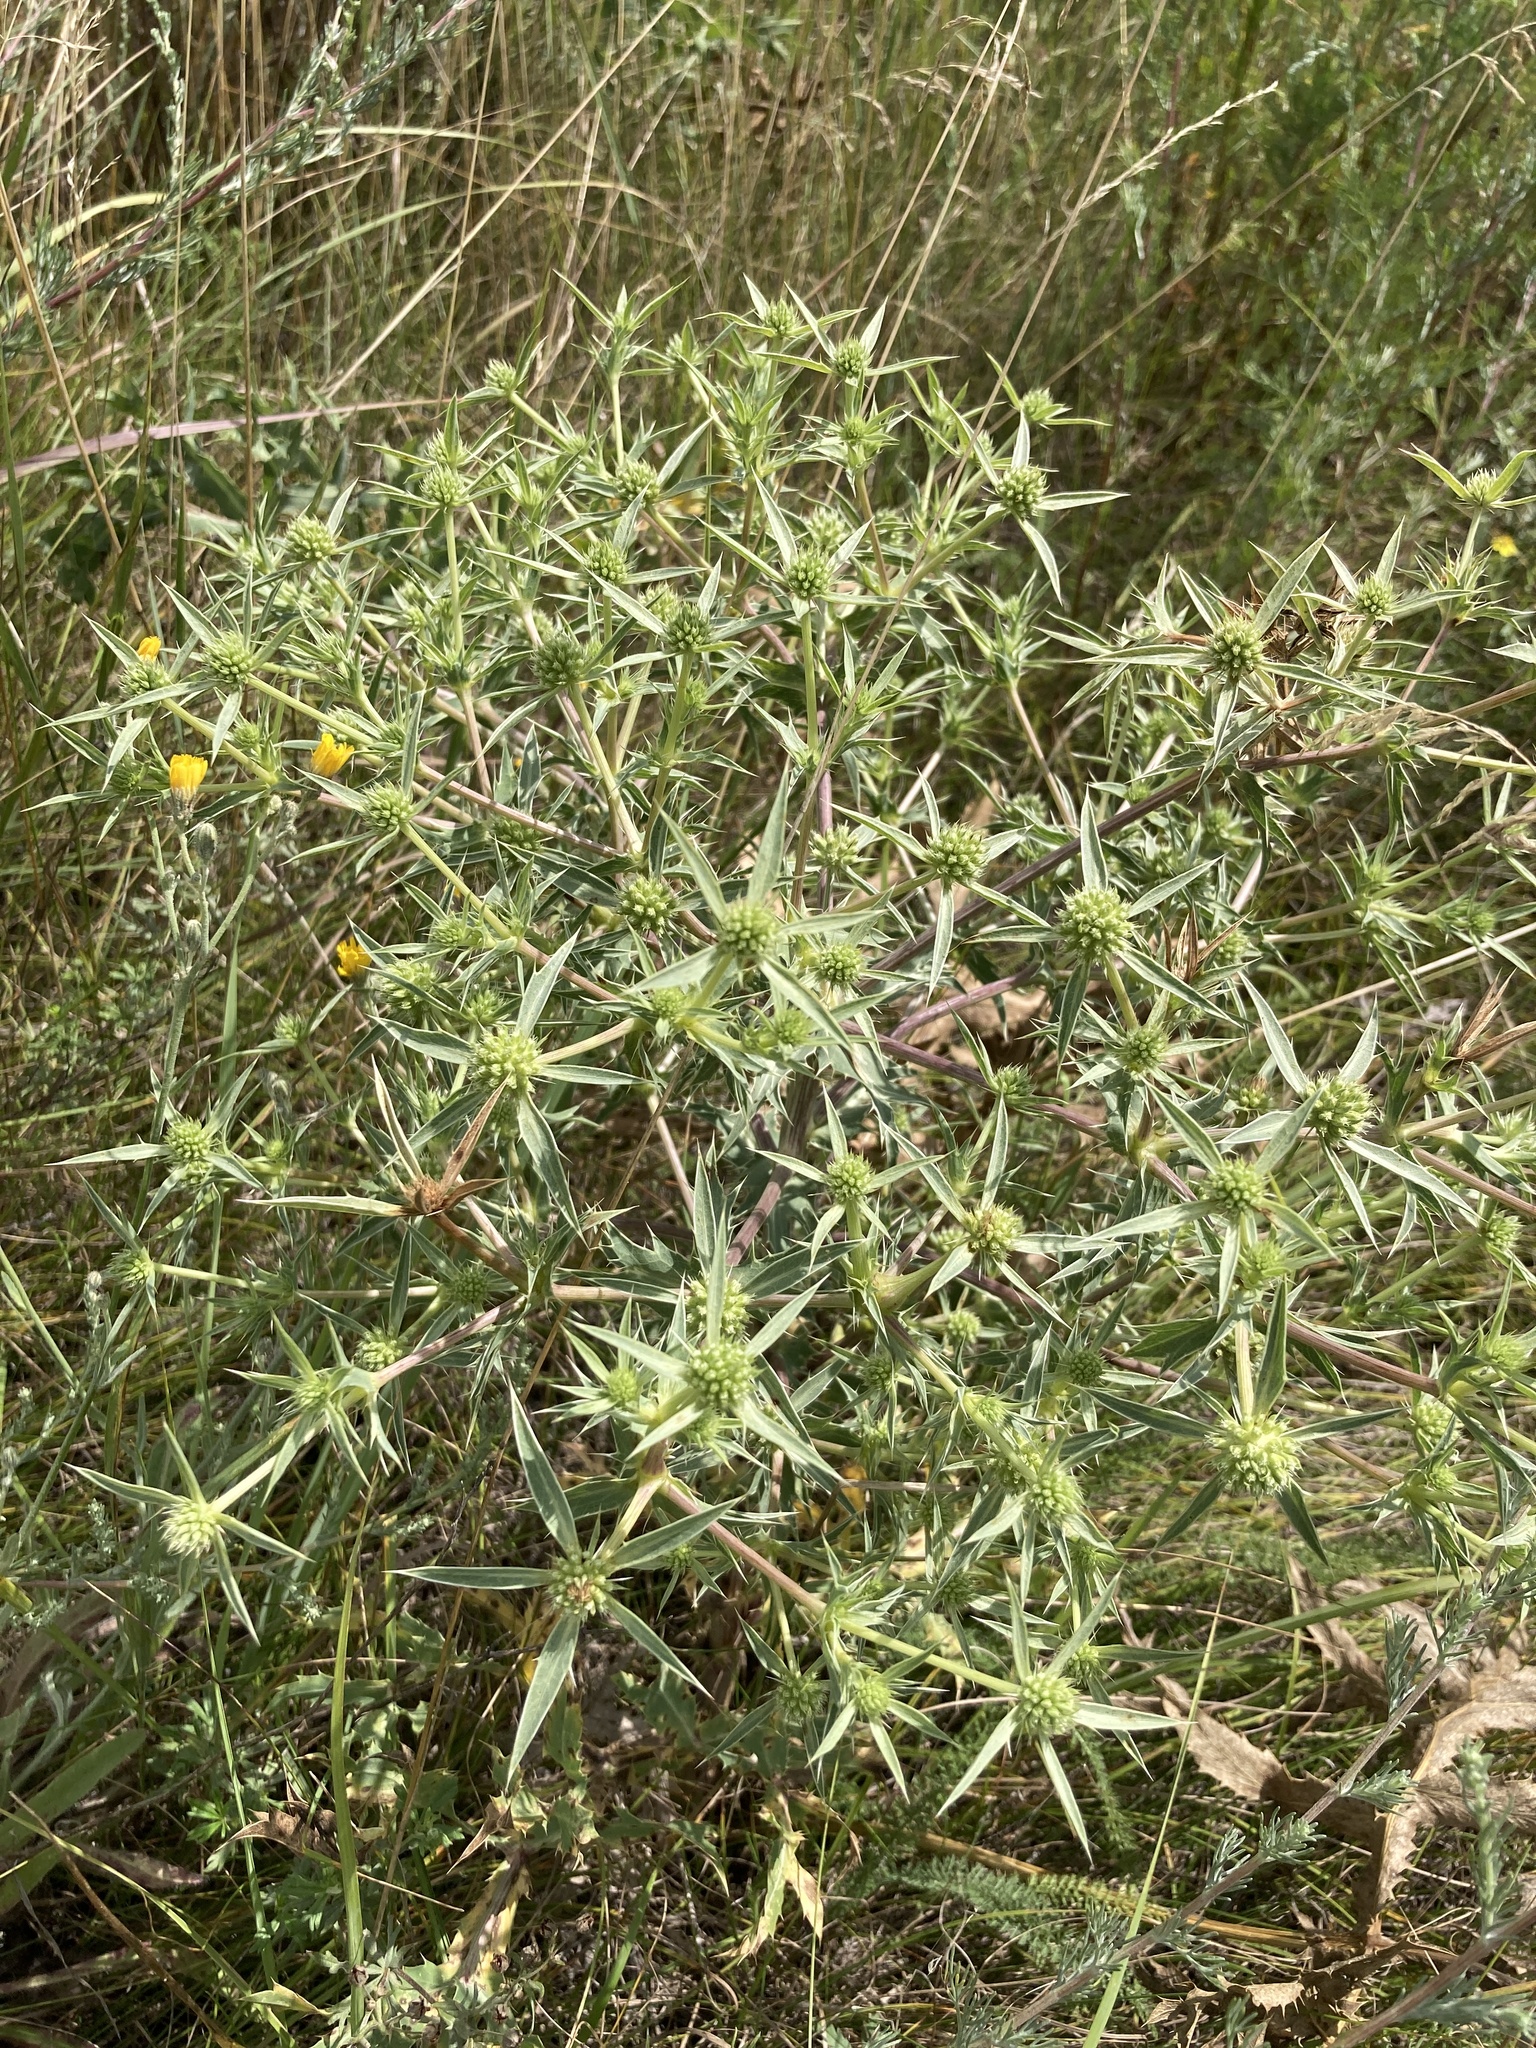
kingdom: Plantae
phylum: Tracheophyta
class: Magnoliopsida
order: Apiales
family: Apiaceae
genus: Eryngium
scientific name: Eryngium campestre
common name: Field eryngo
